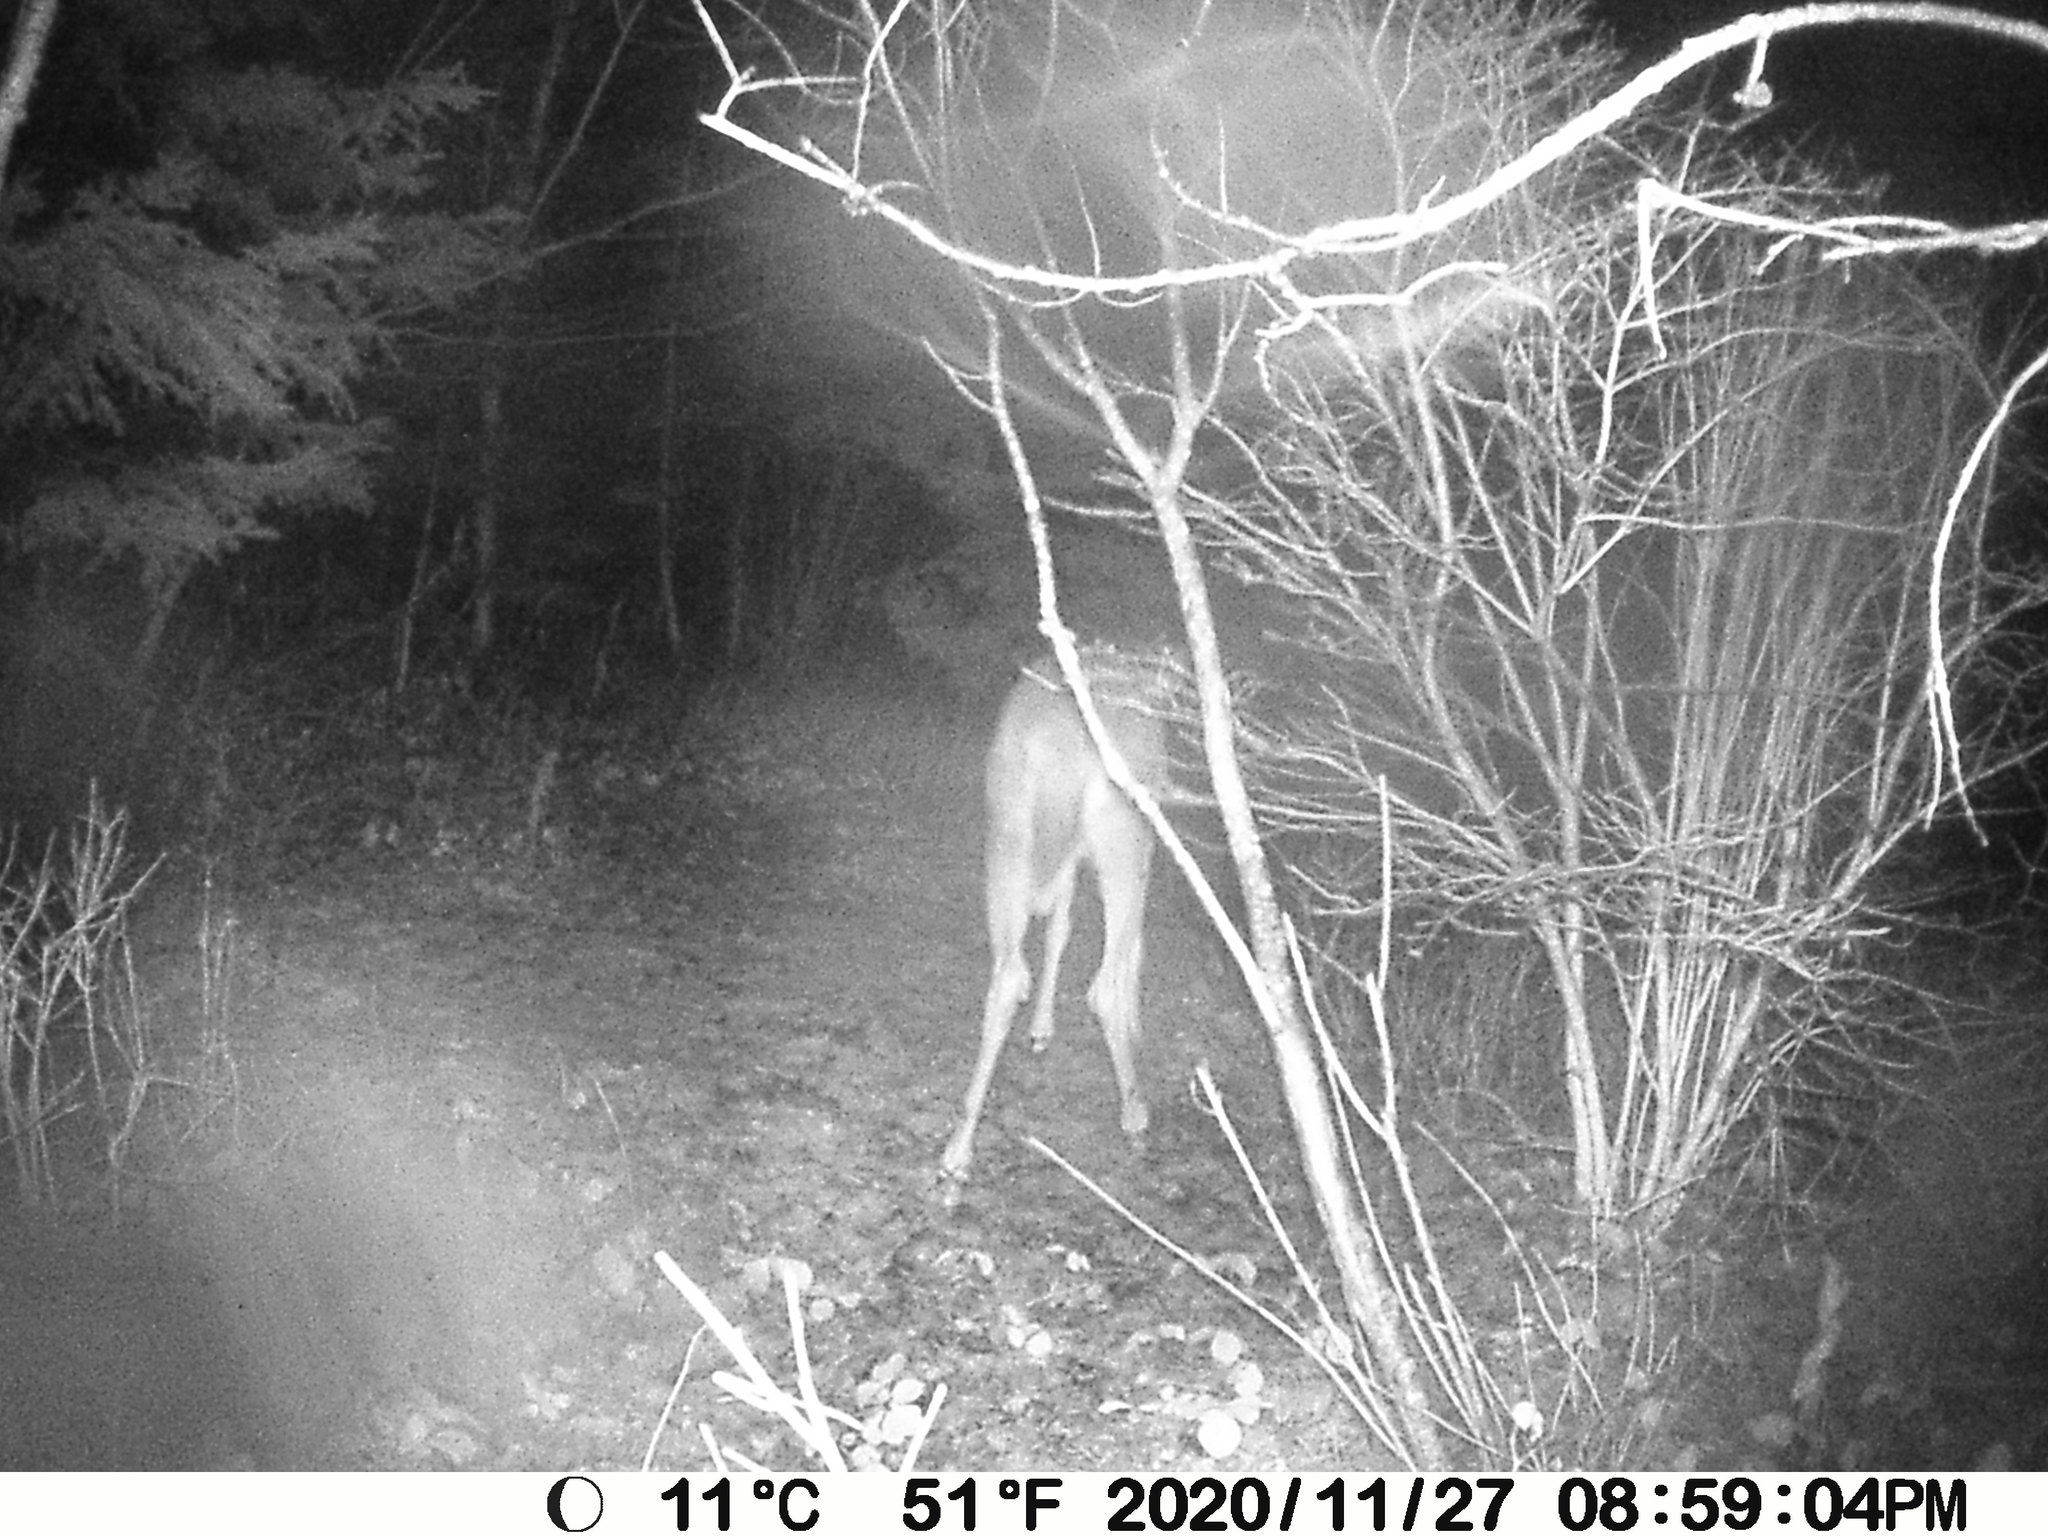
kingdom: Animalia
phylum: Chordata
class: Mammalia
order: Artiodactyla
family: Cervidae
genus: Odocoileus
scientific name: Odocoileus virginianus
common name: White-tailed deer
